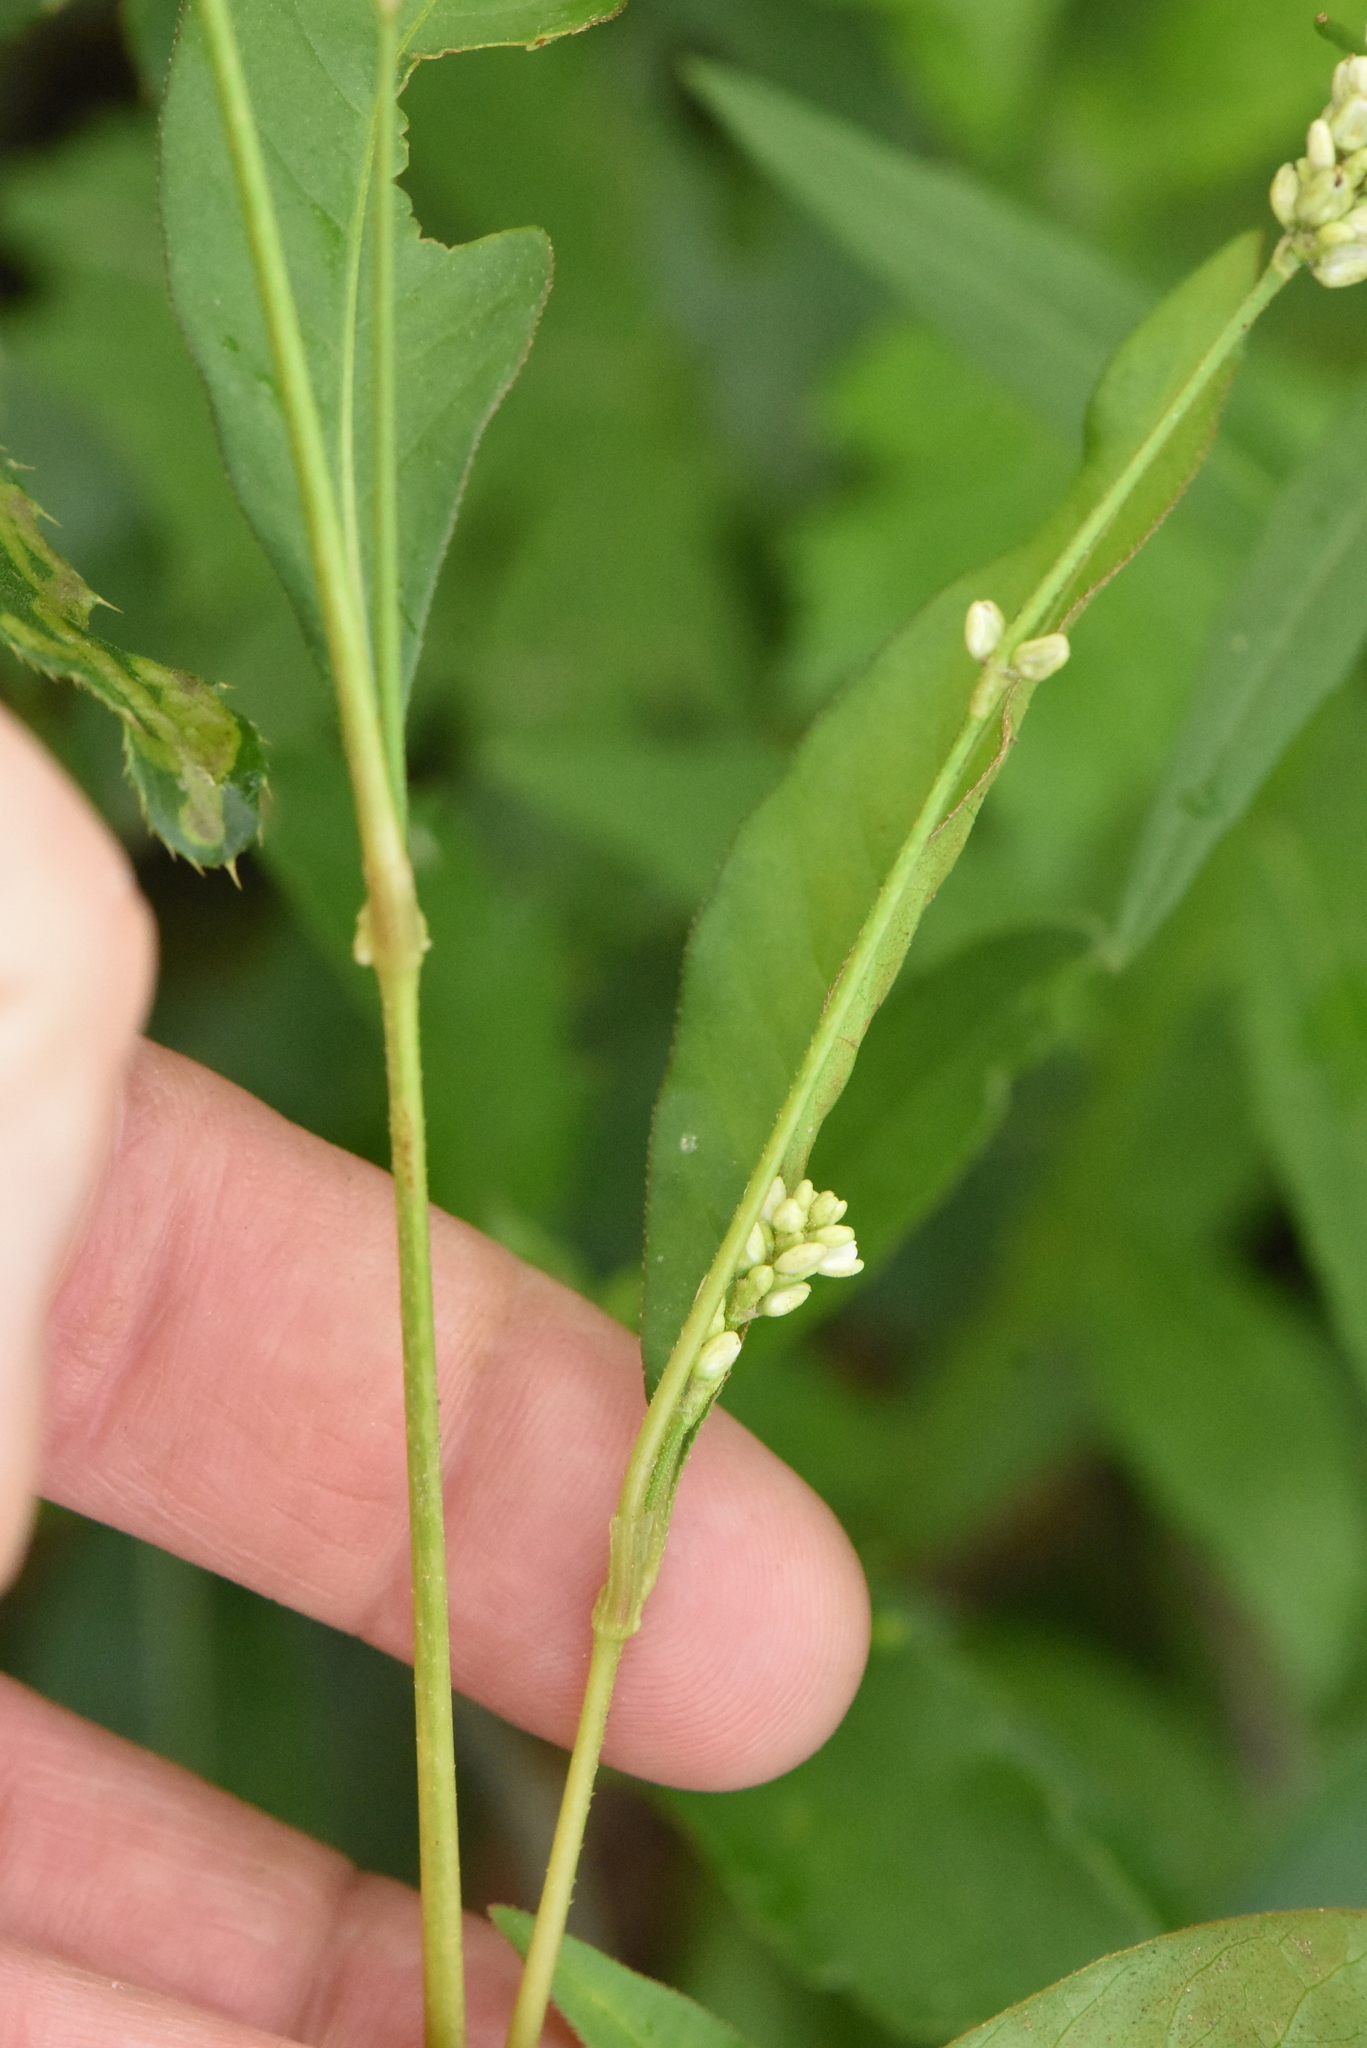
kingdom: Plantae
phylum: Tracheophyta
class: Magnoliopsida
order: Caryophyllales
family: Polygonaceae
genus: Persicaria
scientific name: Persicaria lapathifolia
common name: Curlytop knotweed
